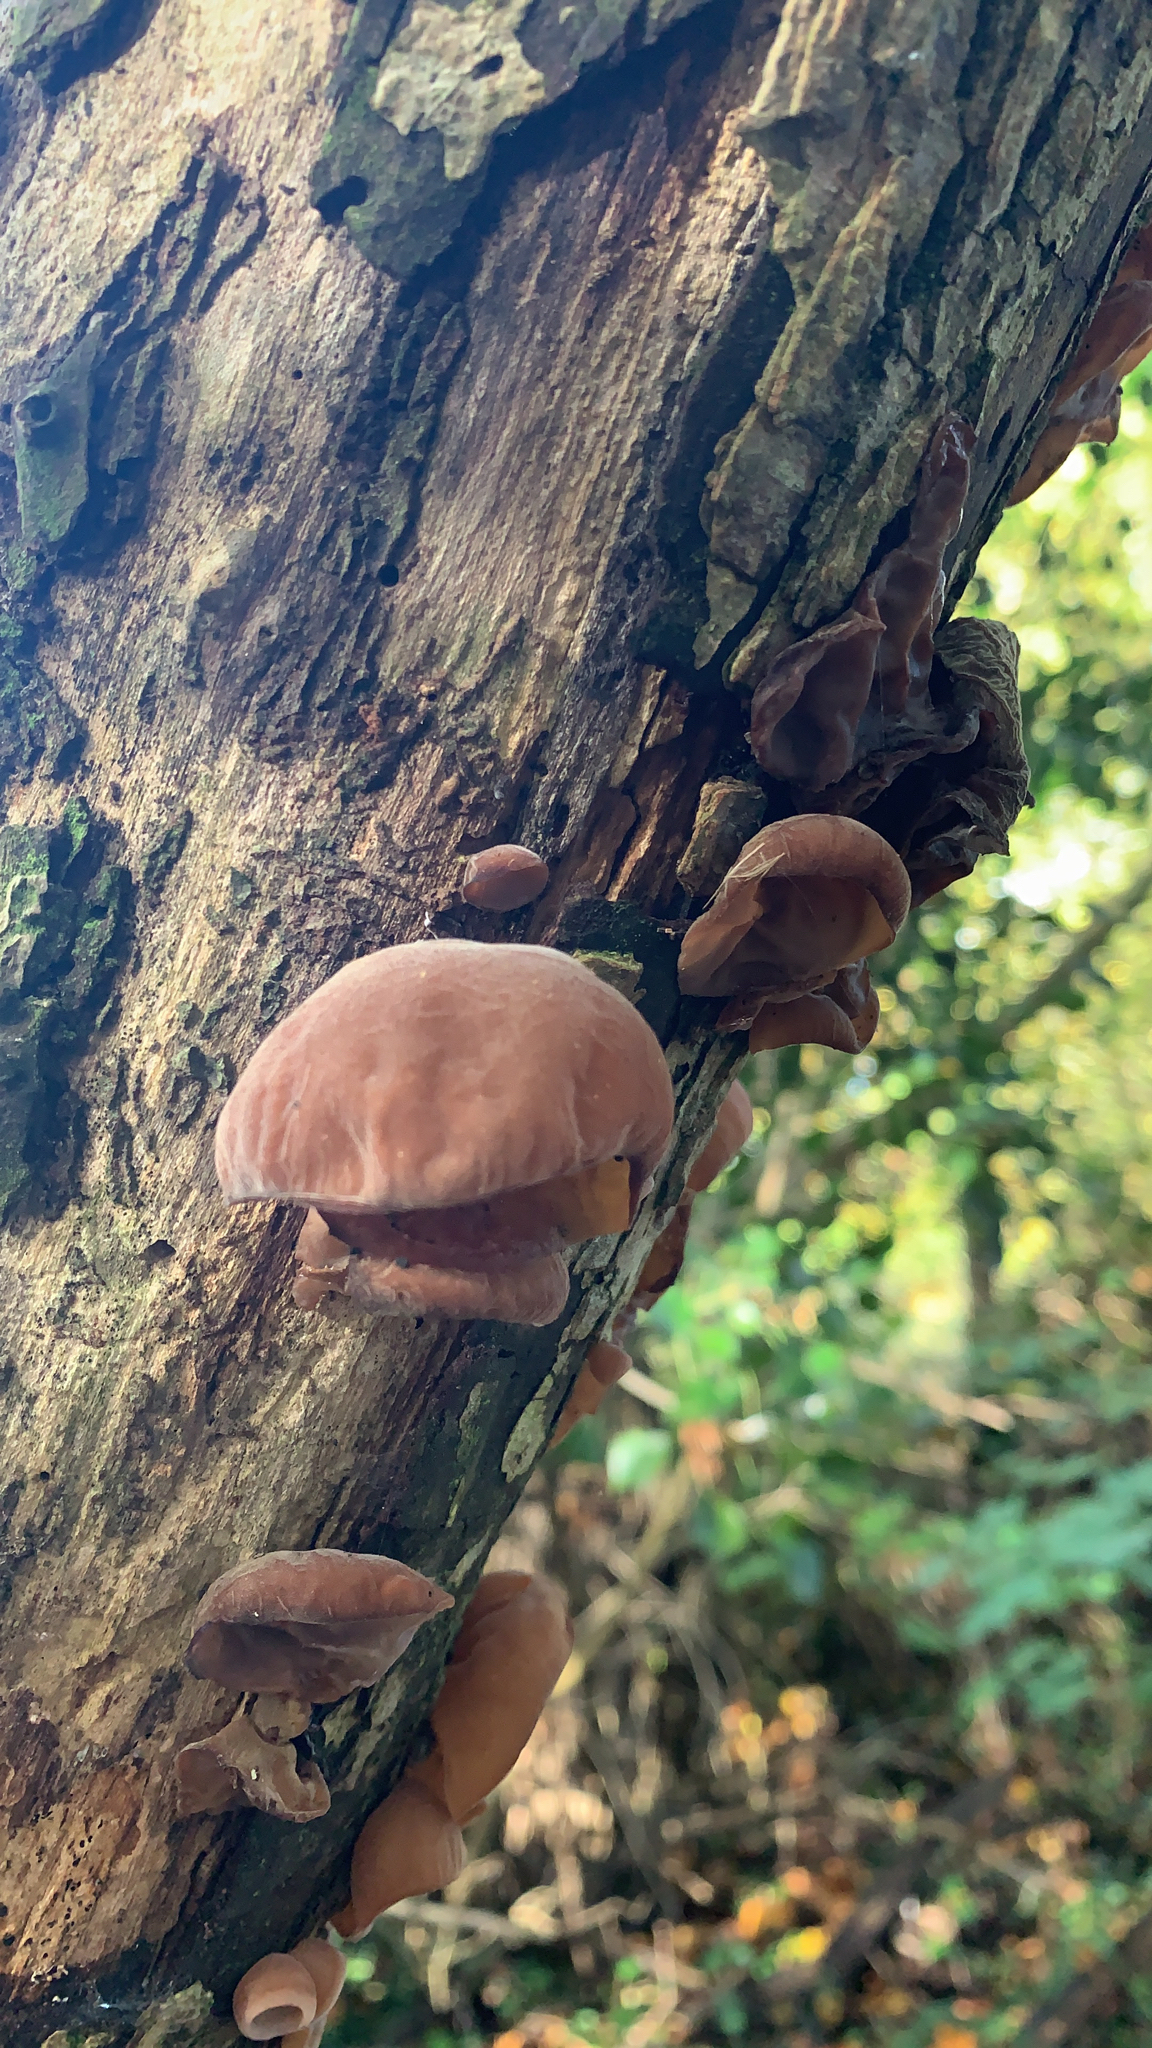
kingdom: Fungi
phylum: Basidiomycota
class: Agaricomycetes
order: Auriculariales
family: Auriculariaceae
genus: Auricularia
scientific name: Auricularia auricula-judae
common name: Jelly ear
